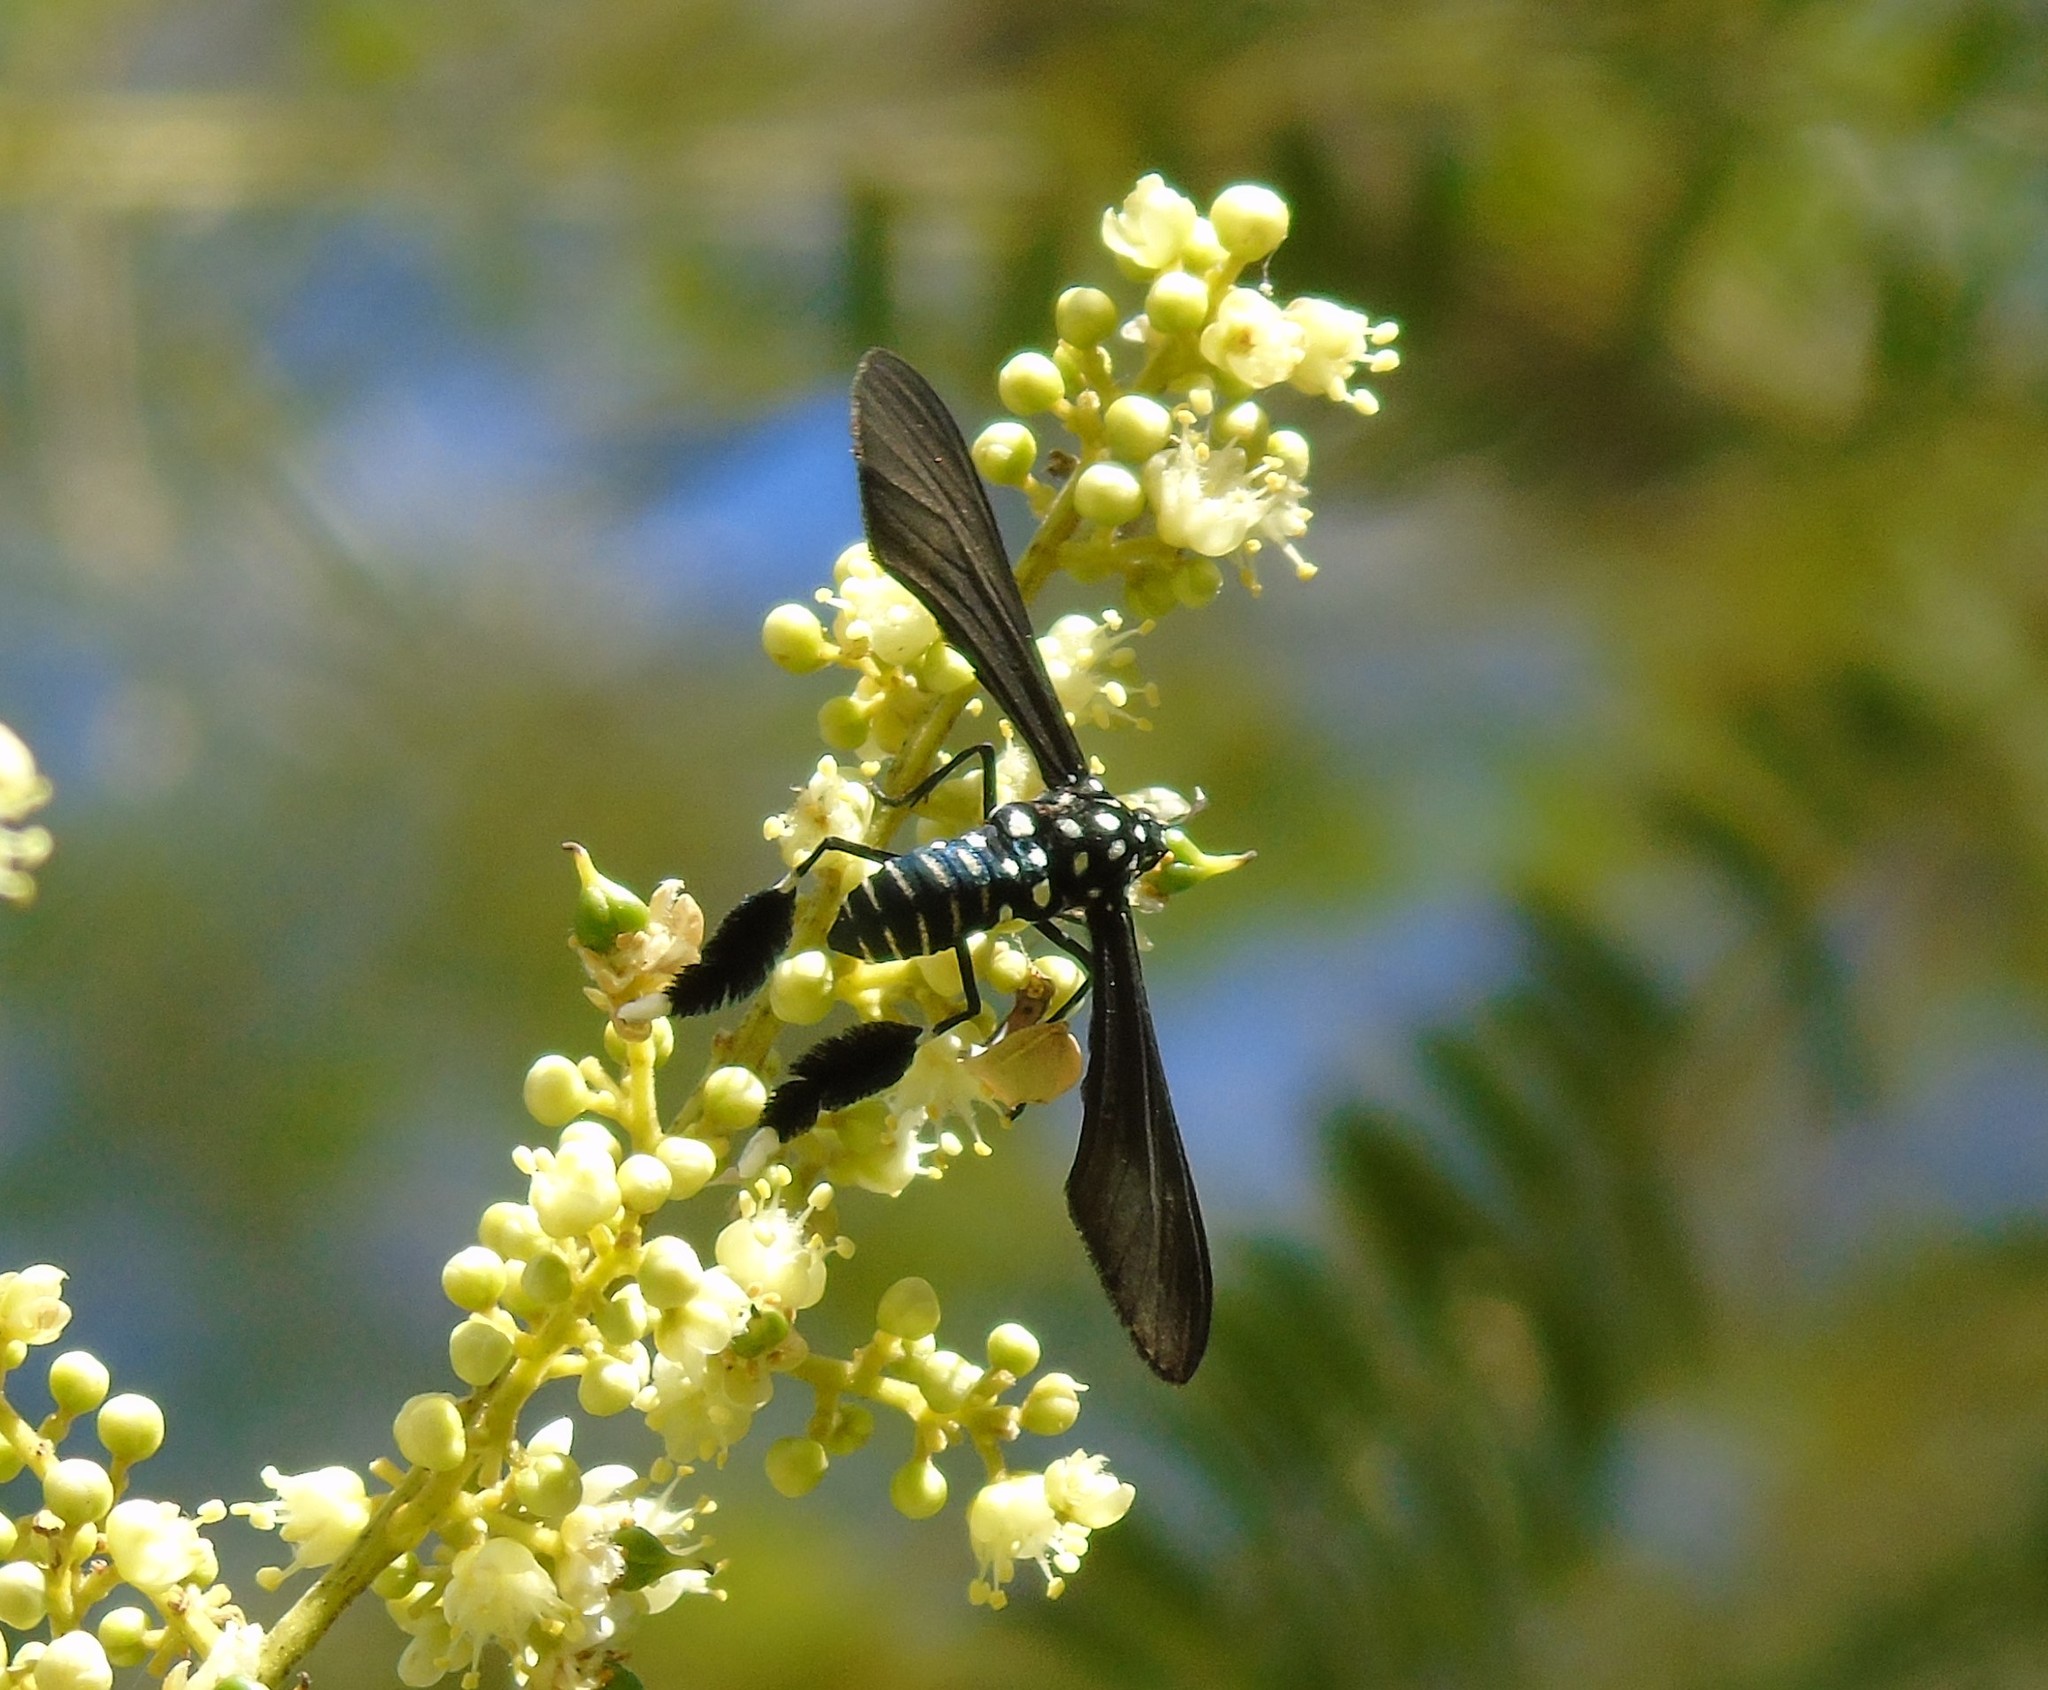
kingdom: Animalia
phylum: Arthropoda
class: Insecta
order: Lepidoptera
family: Erebidae
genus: Horama
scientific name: Horama plumipes
